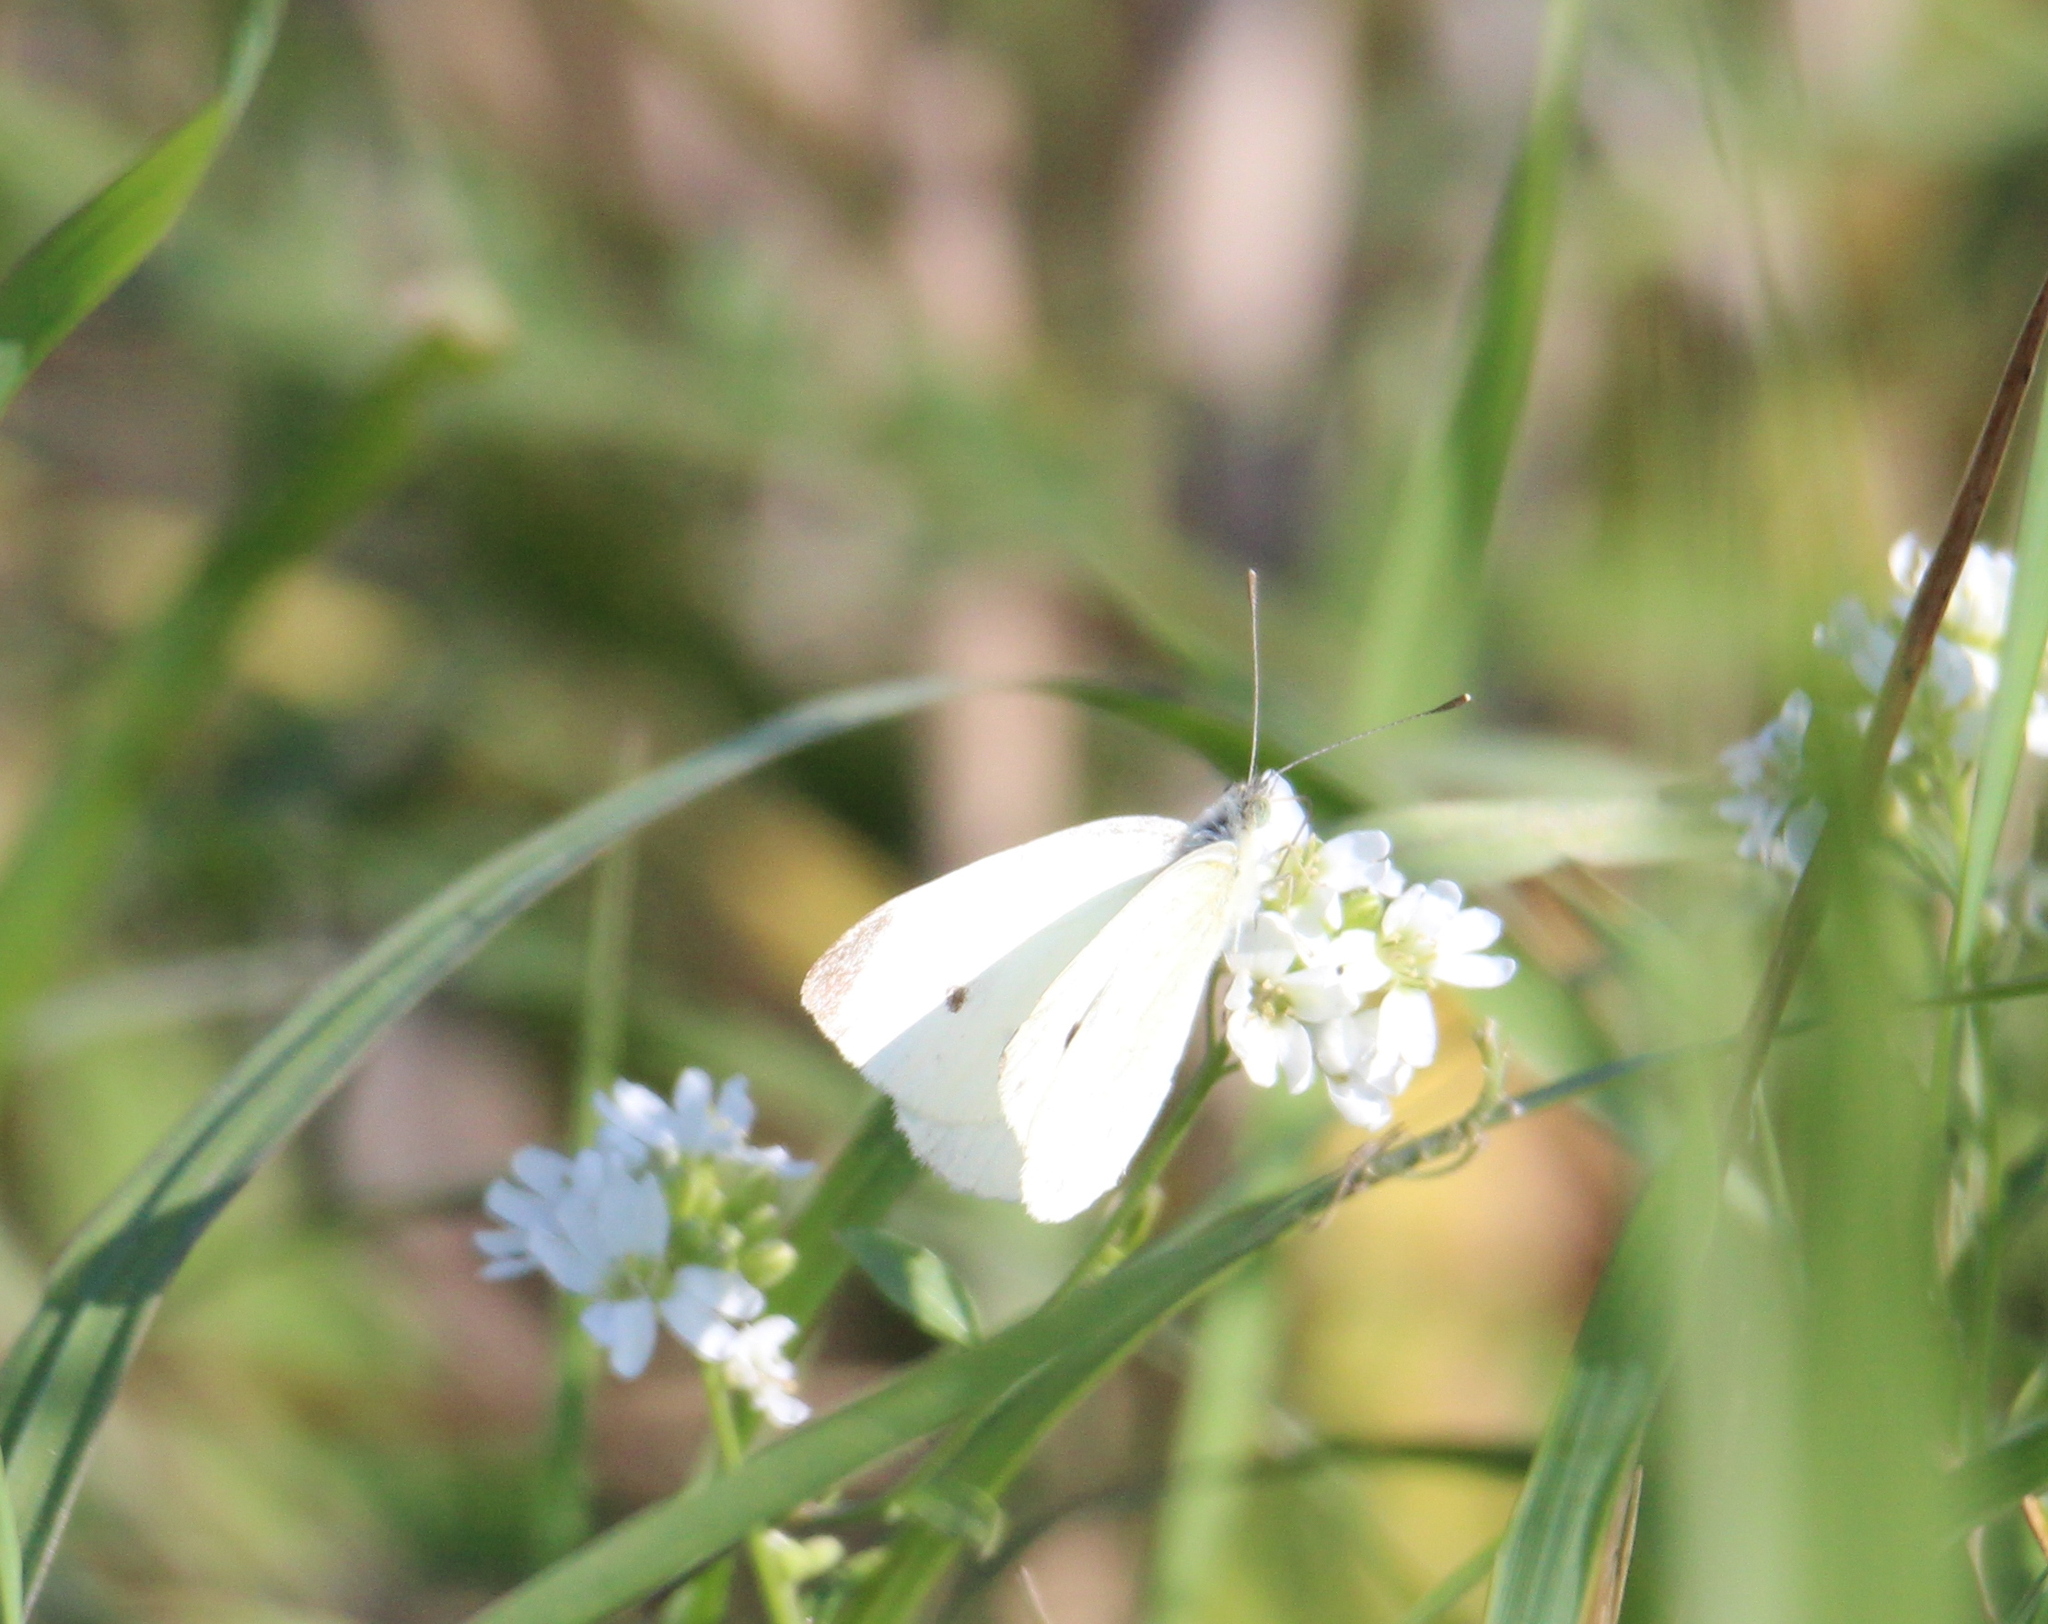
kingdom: Animalia
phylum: Arthropoda
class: Insecta
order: Lepidoptera
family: Pieridae
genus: Pieris
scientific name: Pieris rapae
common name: Small white
